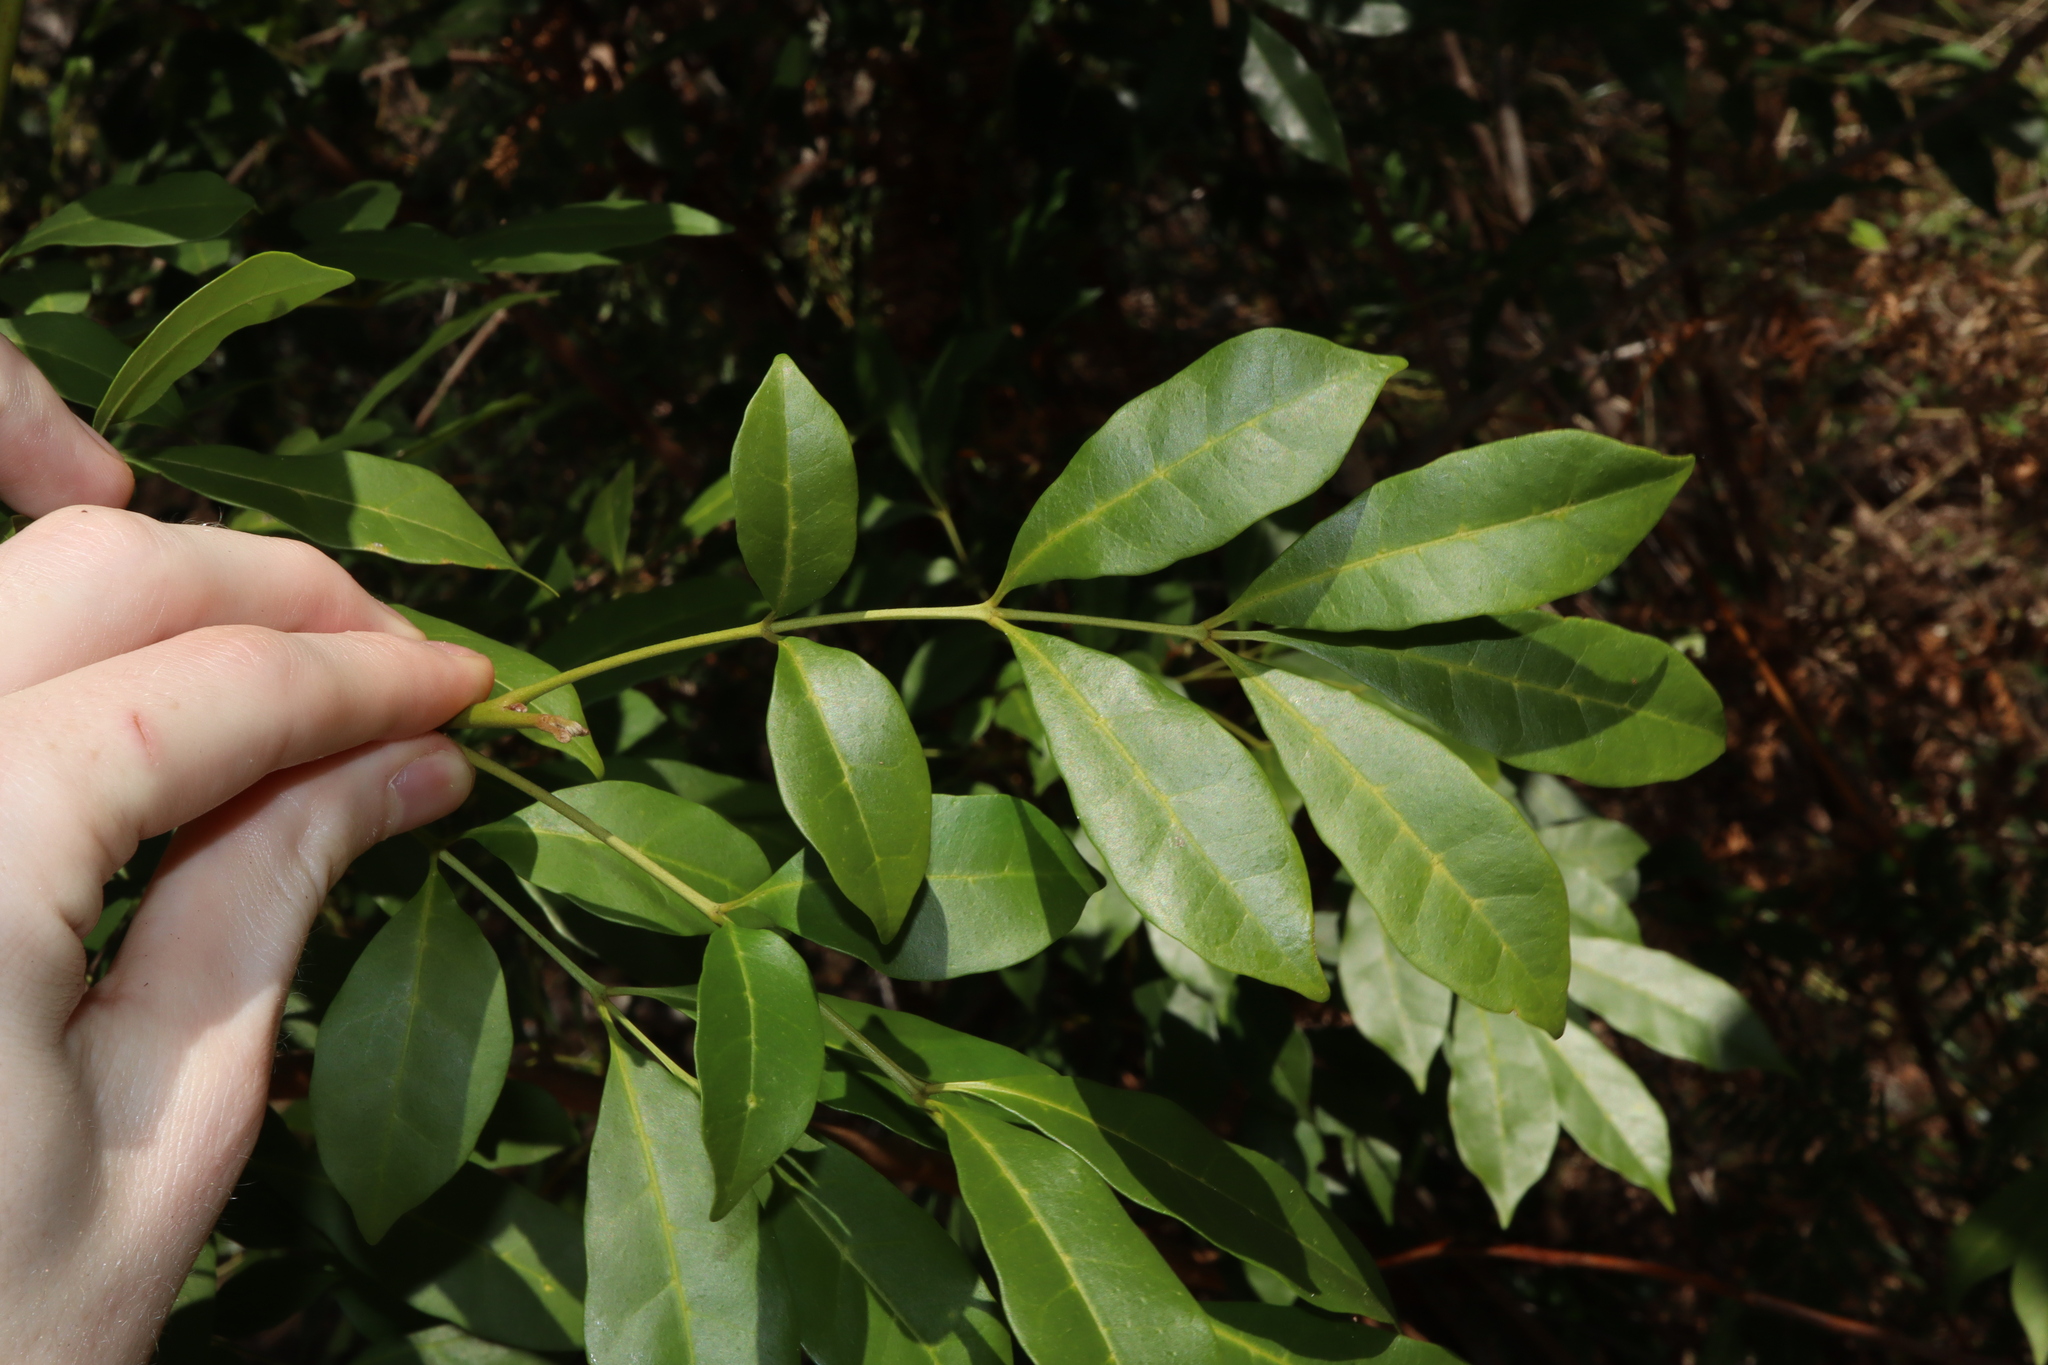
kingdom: Plantae
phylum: Tracheophyta
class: Magnoliopsida
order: Sapindales
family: Meliaceae
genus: Synoum
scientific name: Synoum glandulosum
